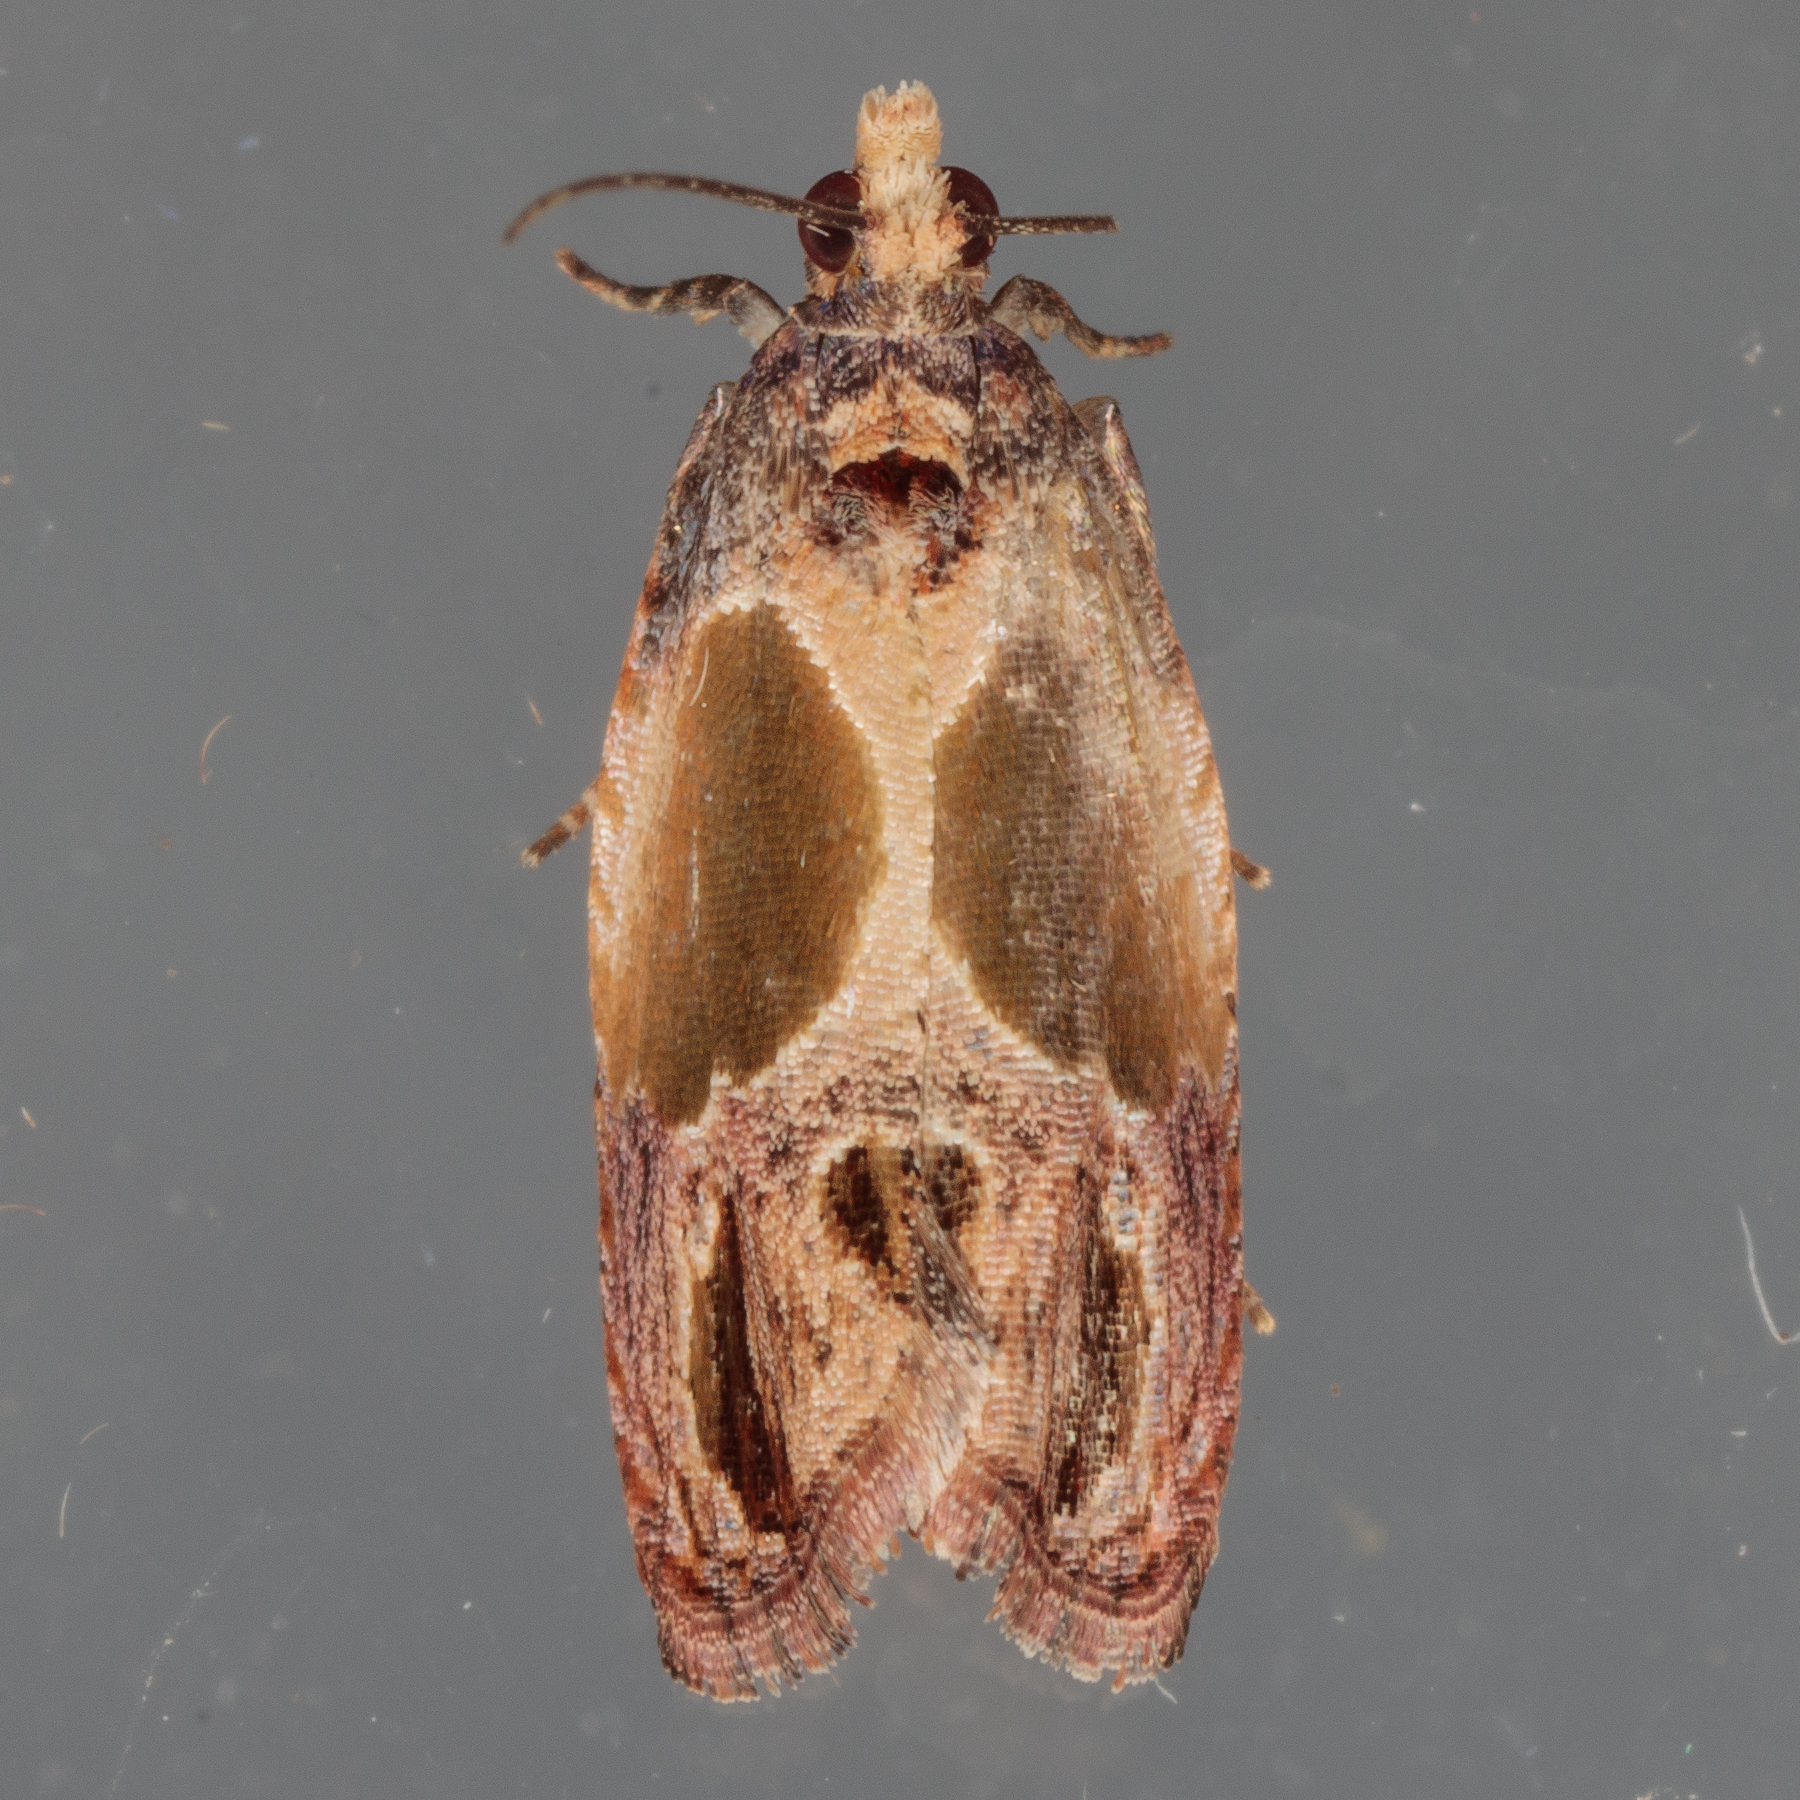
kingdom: Animalia
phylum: Arthropoda
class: Insecta
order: Lepidoptera
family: Tortricidae
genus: Eumarozia
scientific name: Eumarozia malachitana
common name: Sculptured moth
